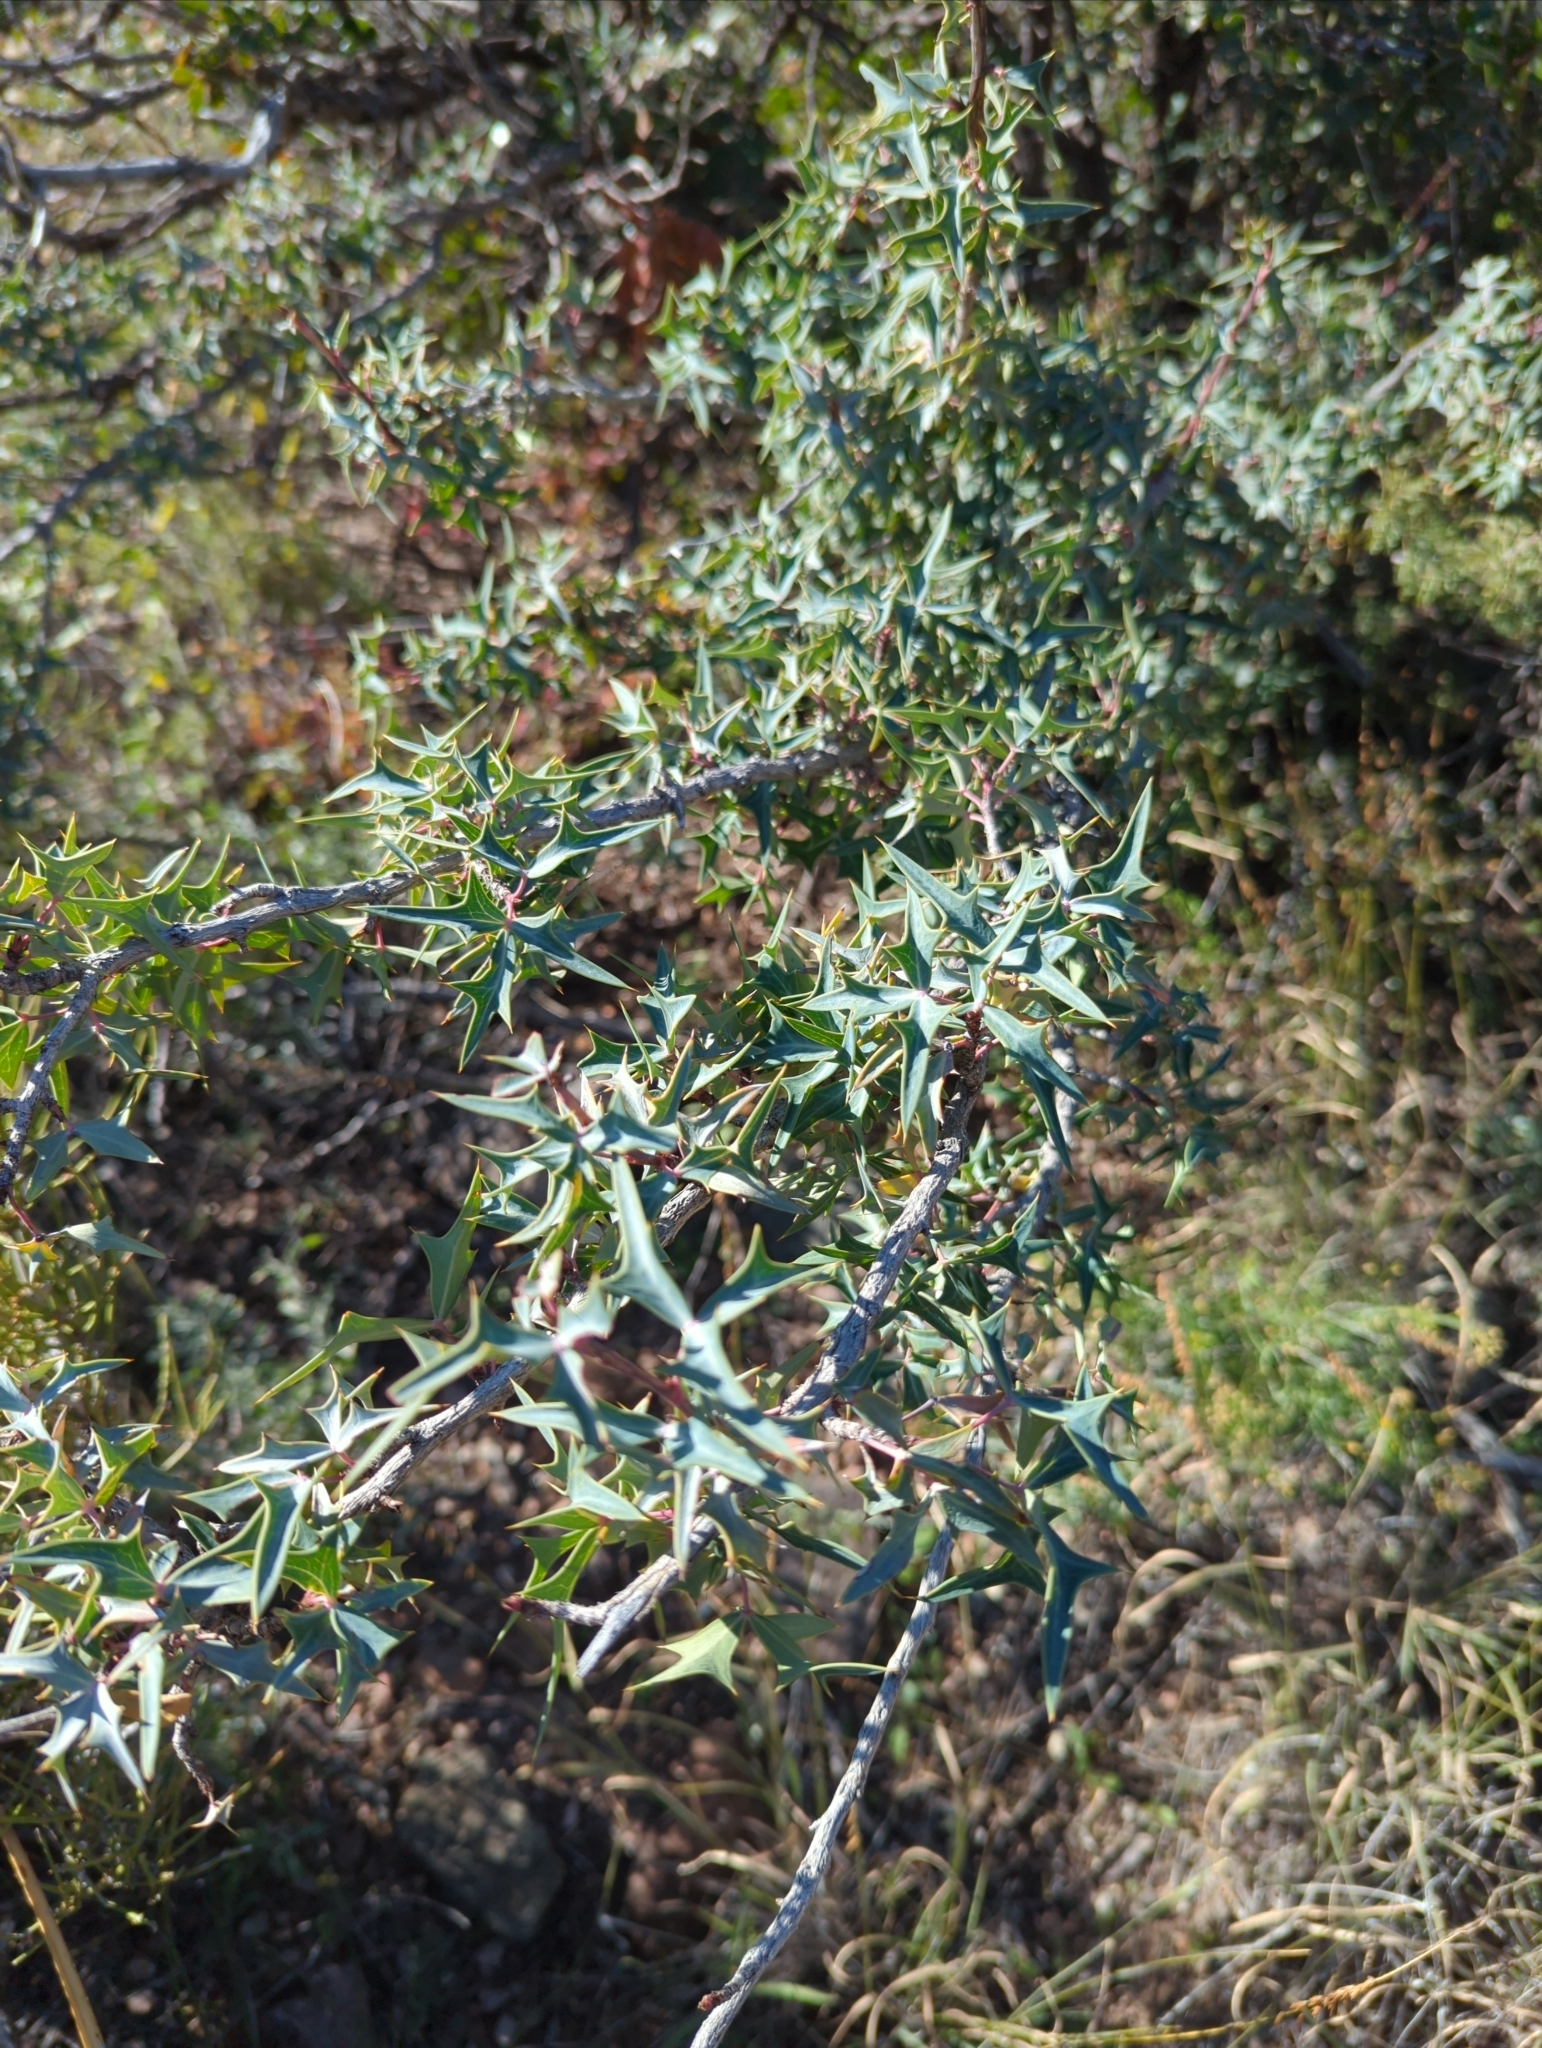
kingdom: Plantae
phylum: Tracheophyta
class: Magnoliopsida
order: Ranunculales
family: Berberidaceae
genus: Alloberberis
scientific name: Alloberberis trifoliolata
